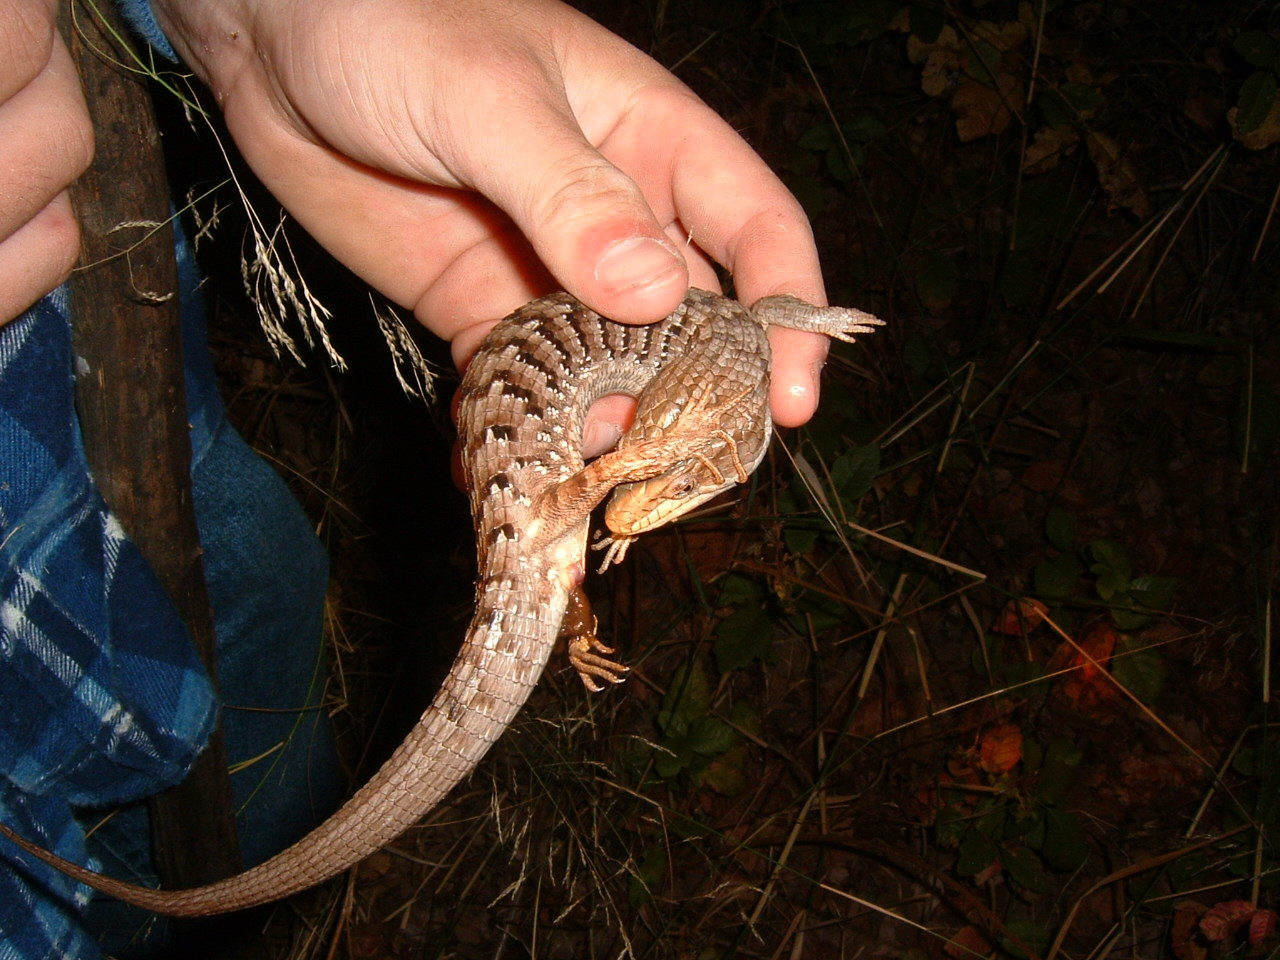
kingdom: Animalia
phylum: Chordata
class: Squamata
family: Anguidae
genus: Elgaria
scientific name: Elgaria multicarinata
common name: Southern alligator lizard
